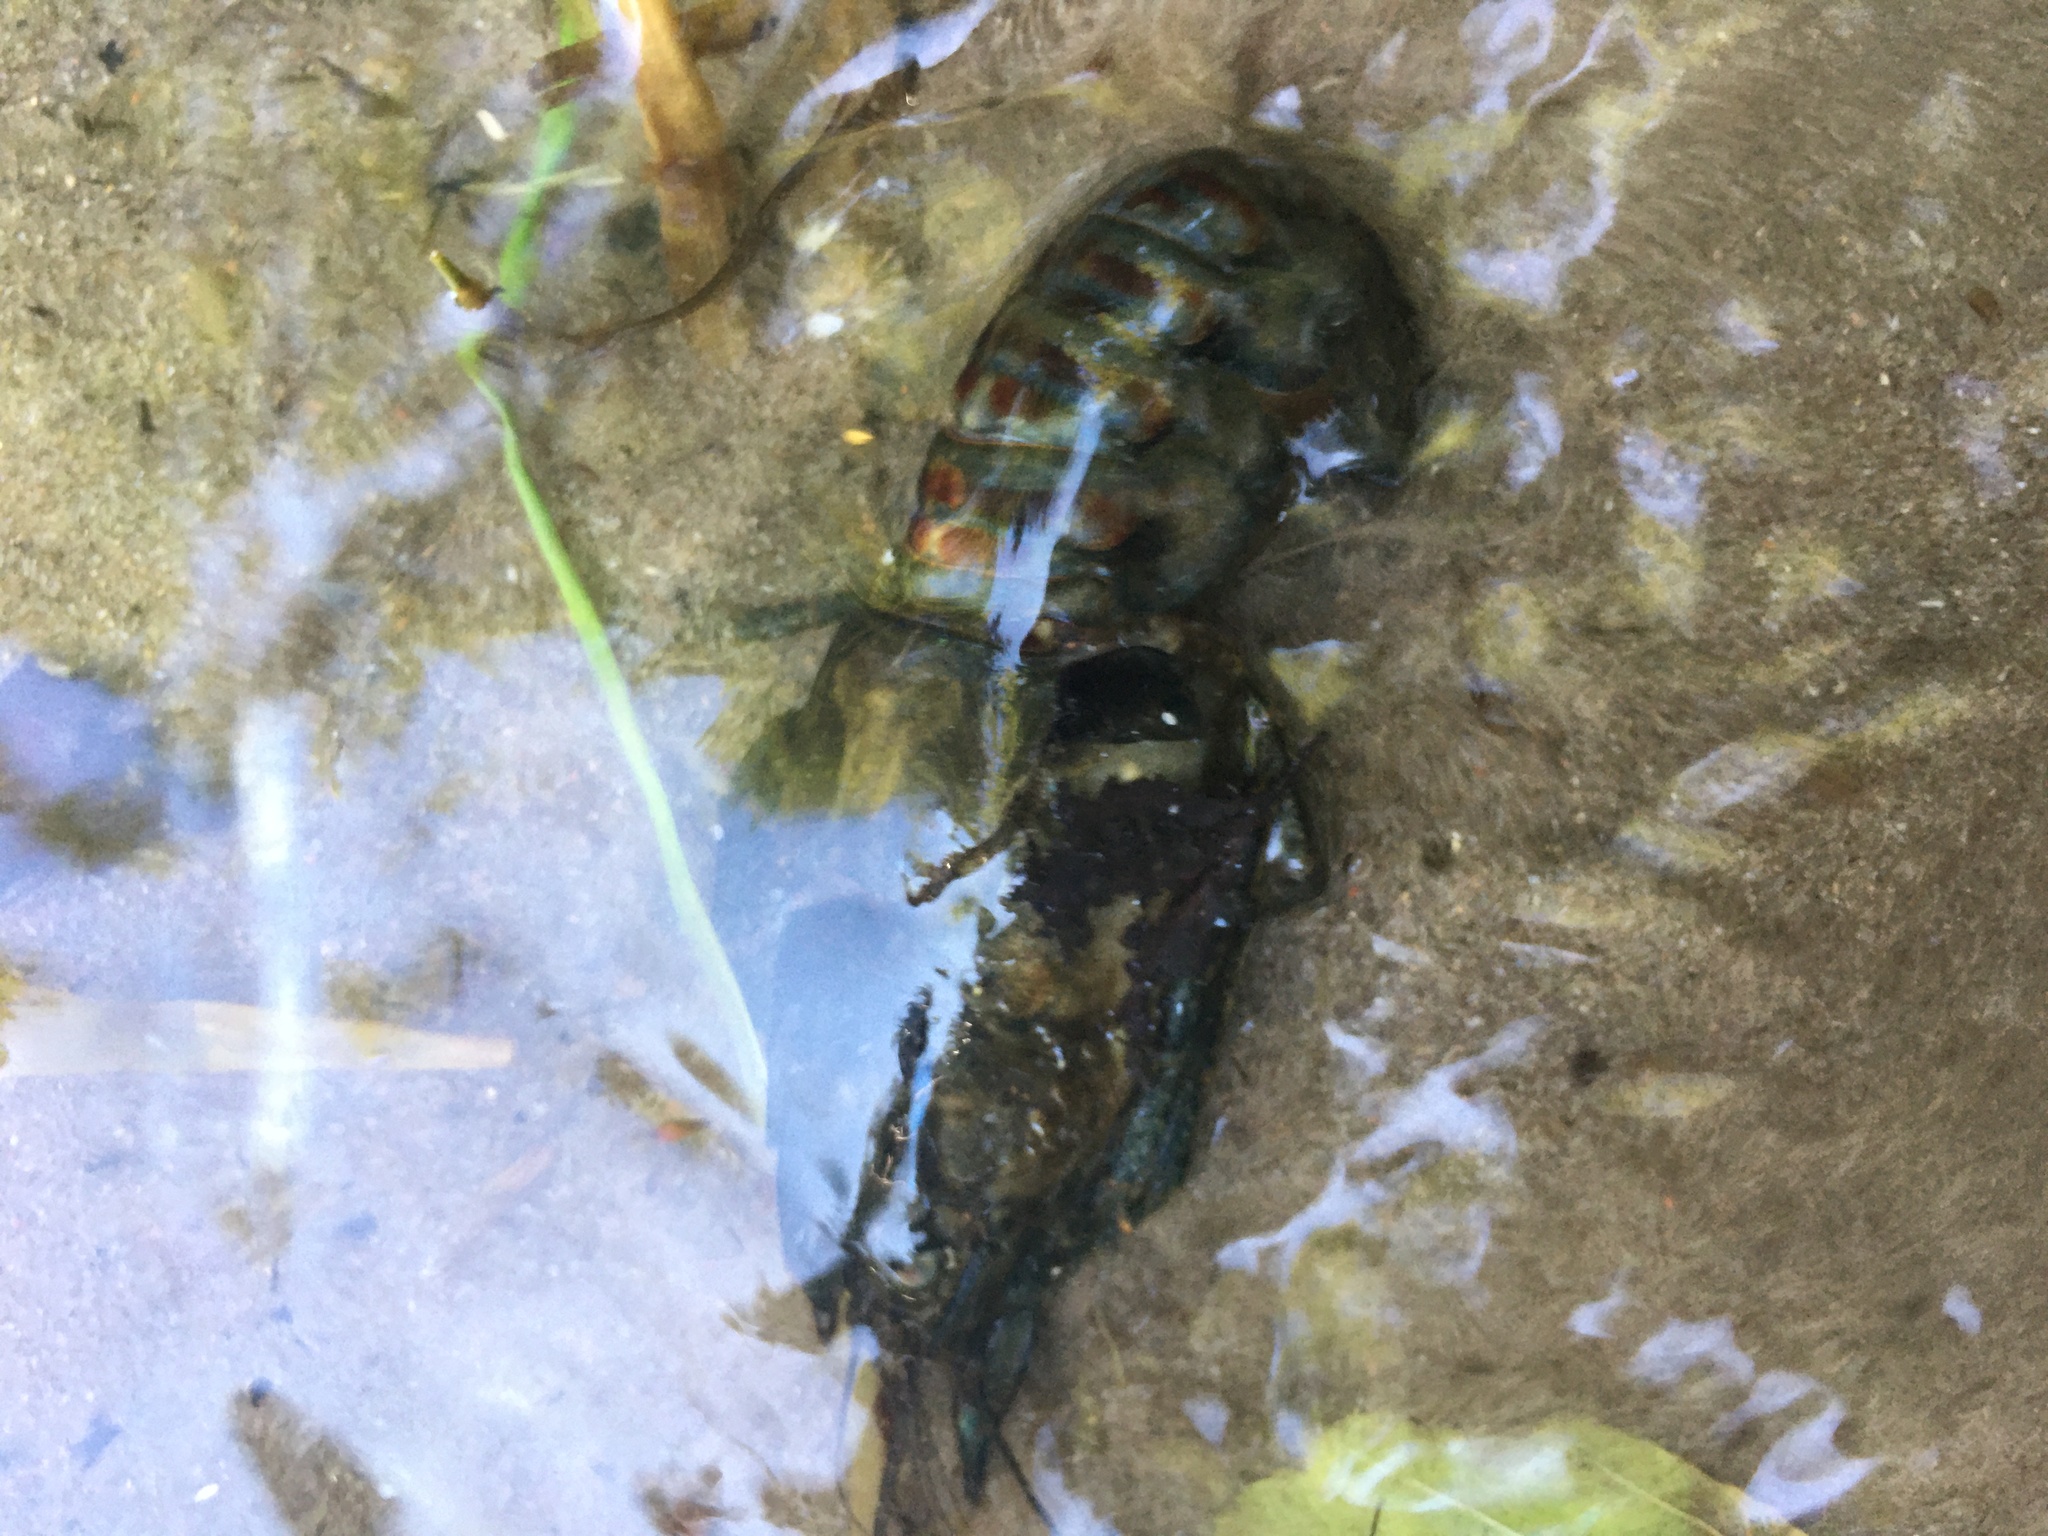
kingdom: Animalia
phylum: Arthropoda
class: Malacostraca
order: Decapoda
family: Cambaridae
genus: Faxonius
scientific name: Faxonius limosus
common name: American crayfish
